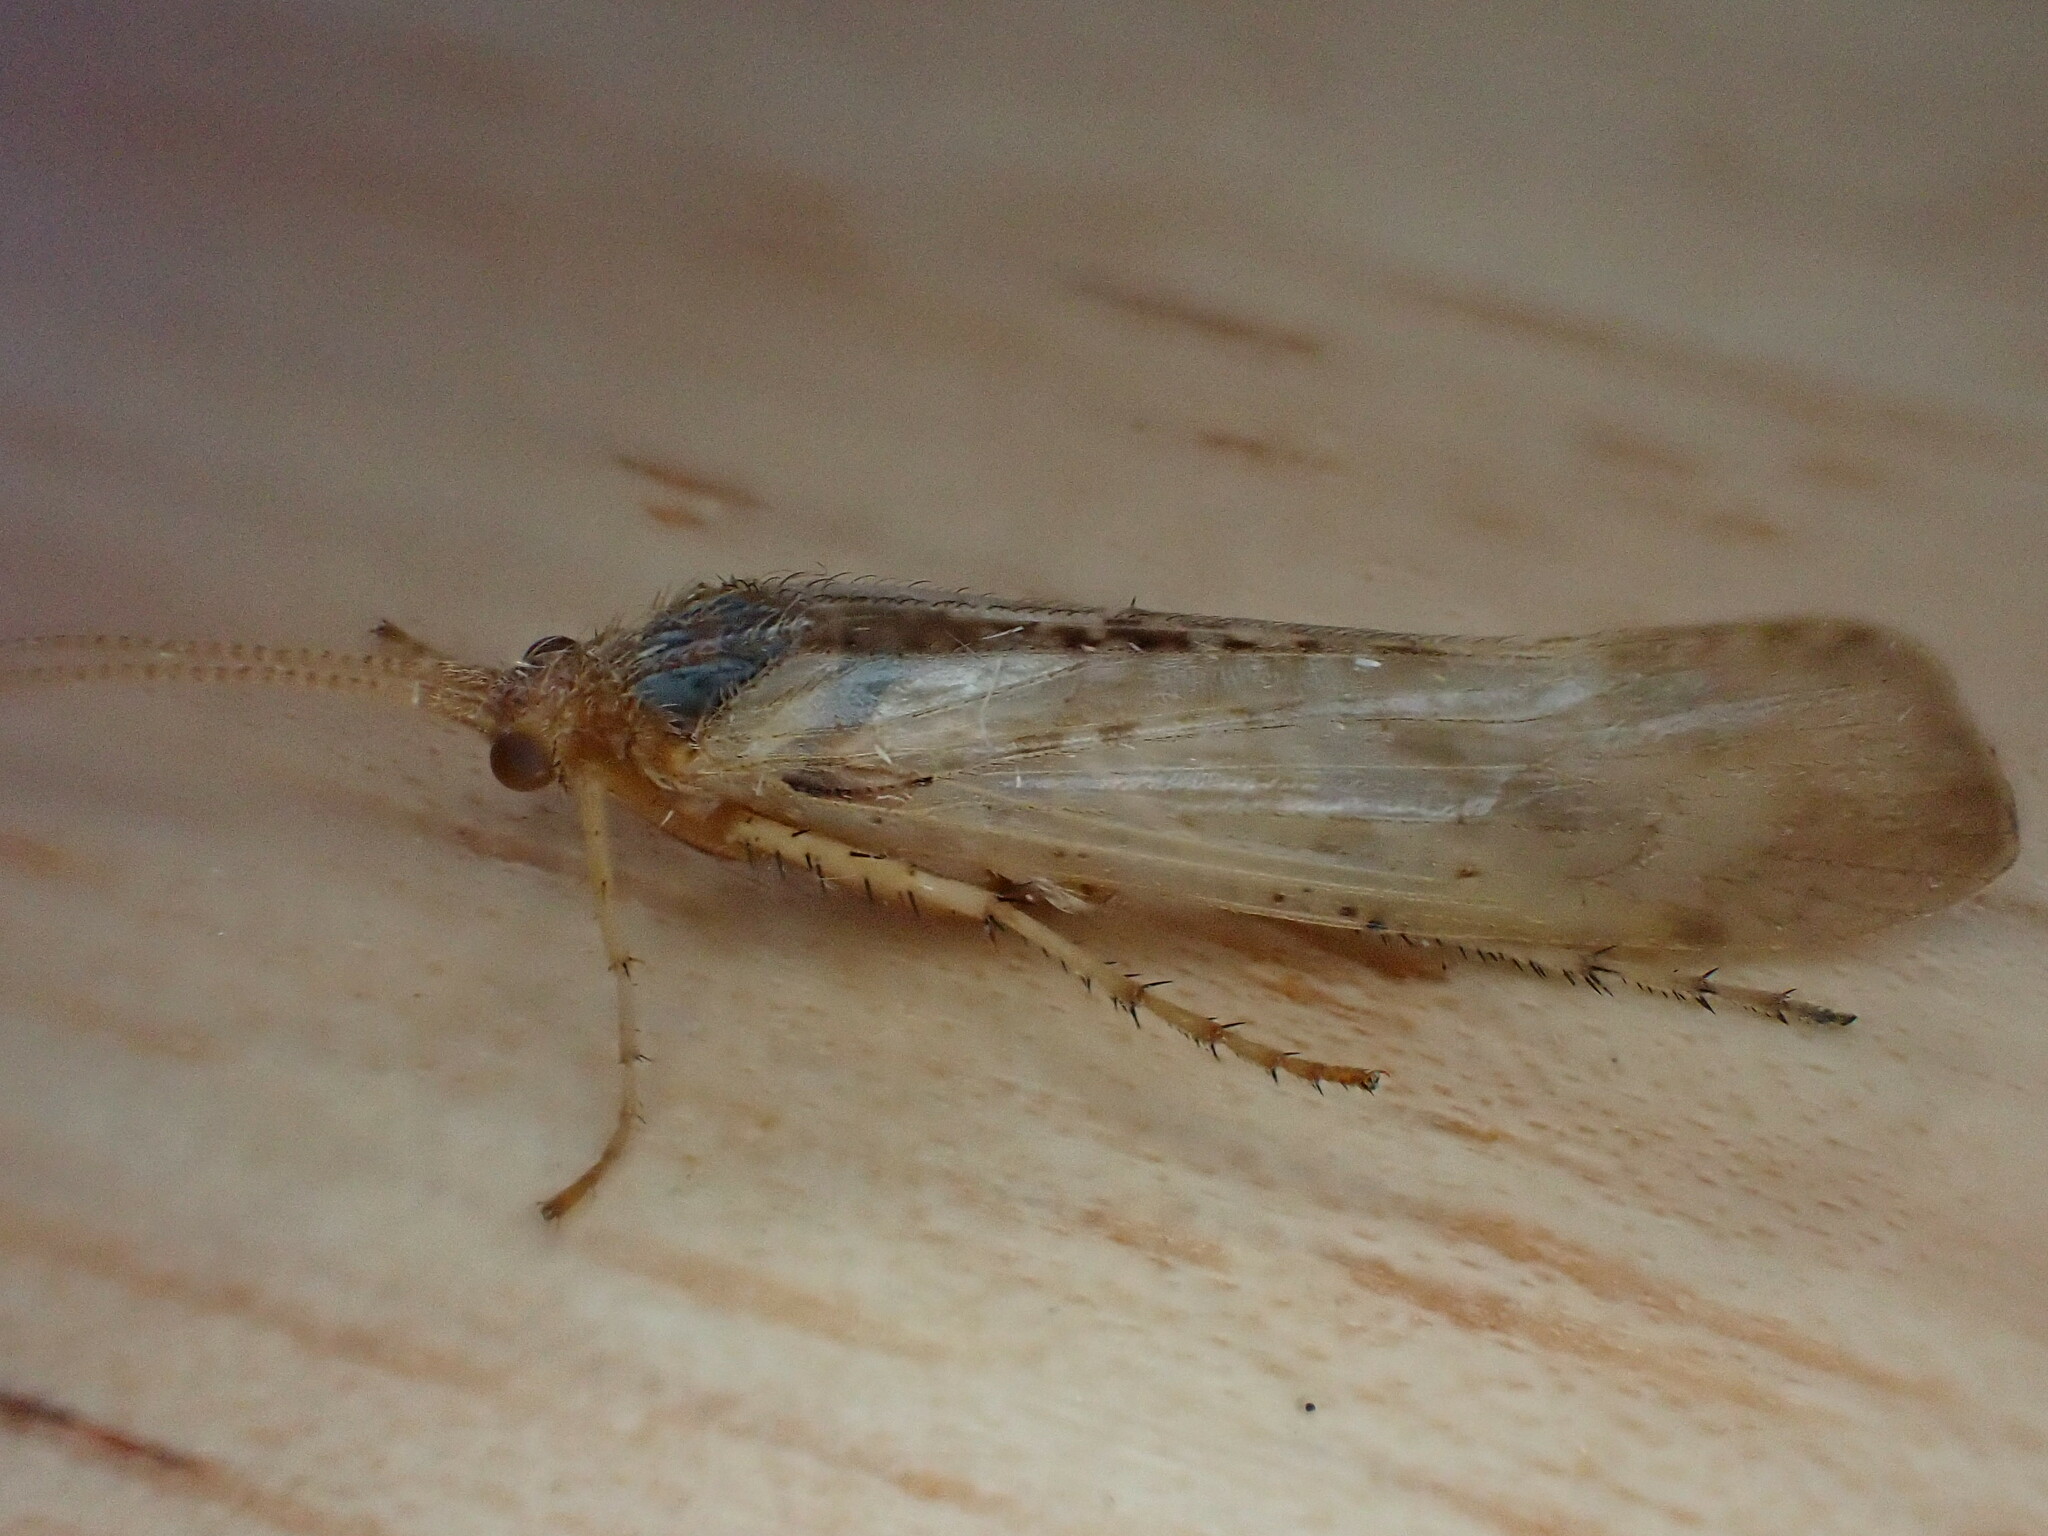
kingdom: Animalia
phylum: Arthropoda
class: Insecta
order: Trichoptera
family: Limnephilidae
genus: Limnephilus
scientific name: Limnephilus flavicornis
